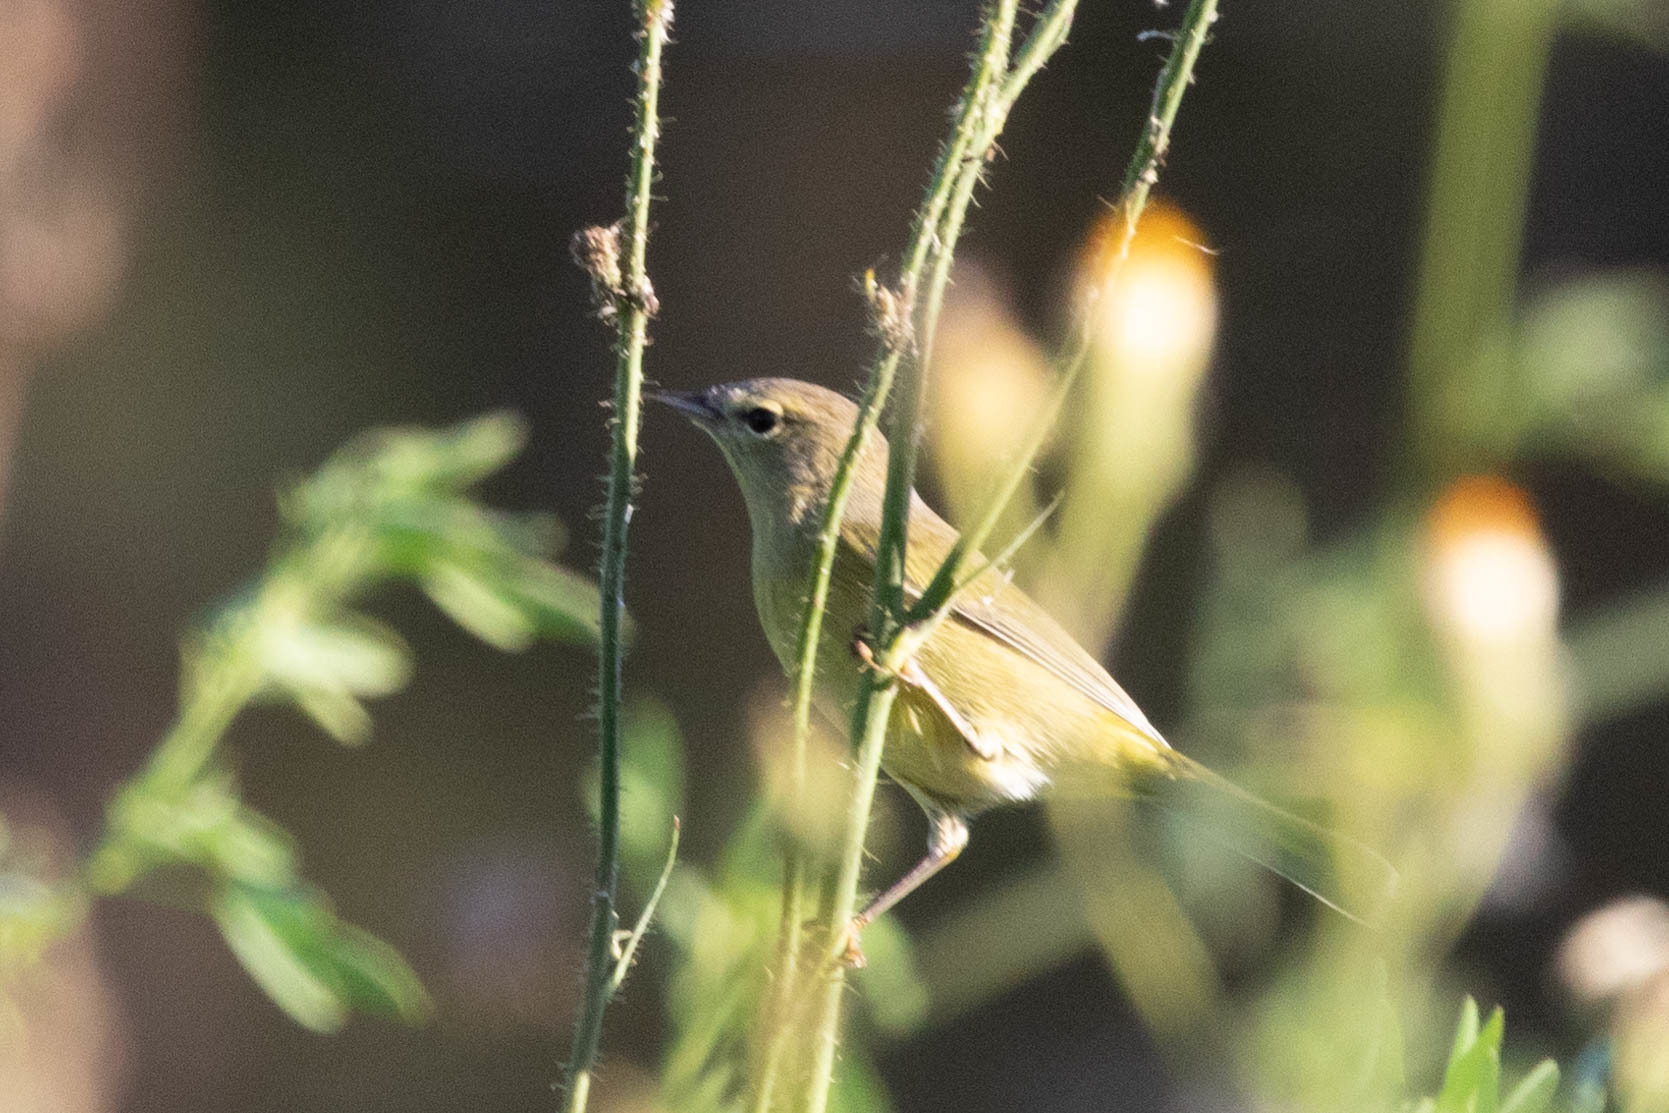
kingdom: Animalia
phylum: Chordata
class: Aves
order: Passeriformes
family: Parulidae
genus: Leiothlypis
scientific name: Leiothlypis celata
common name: Orange-crowned warbler
